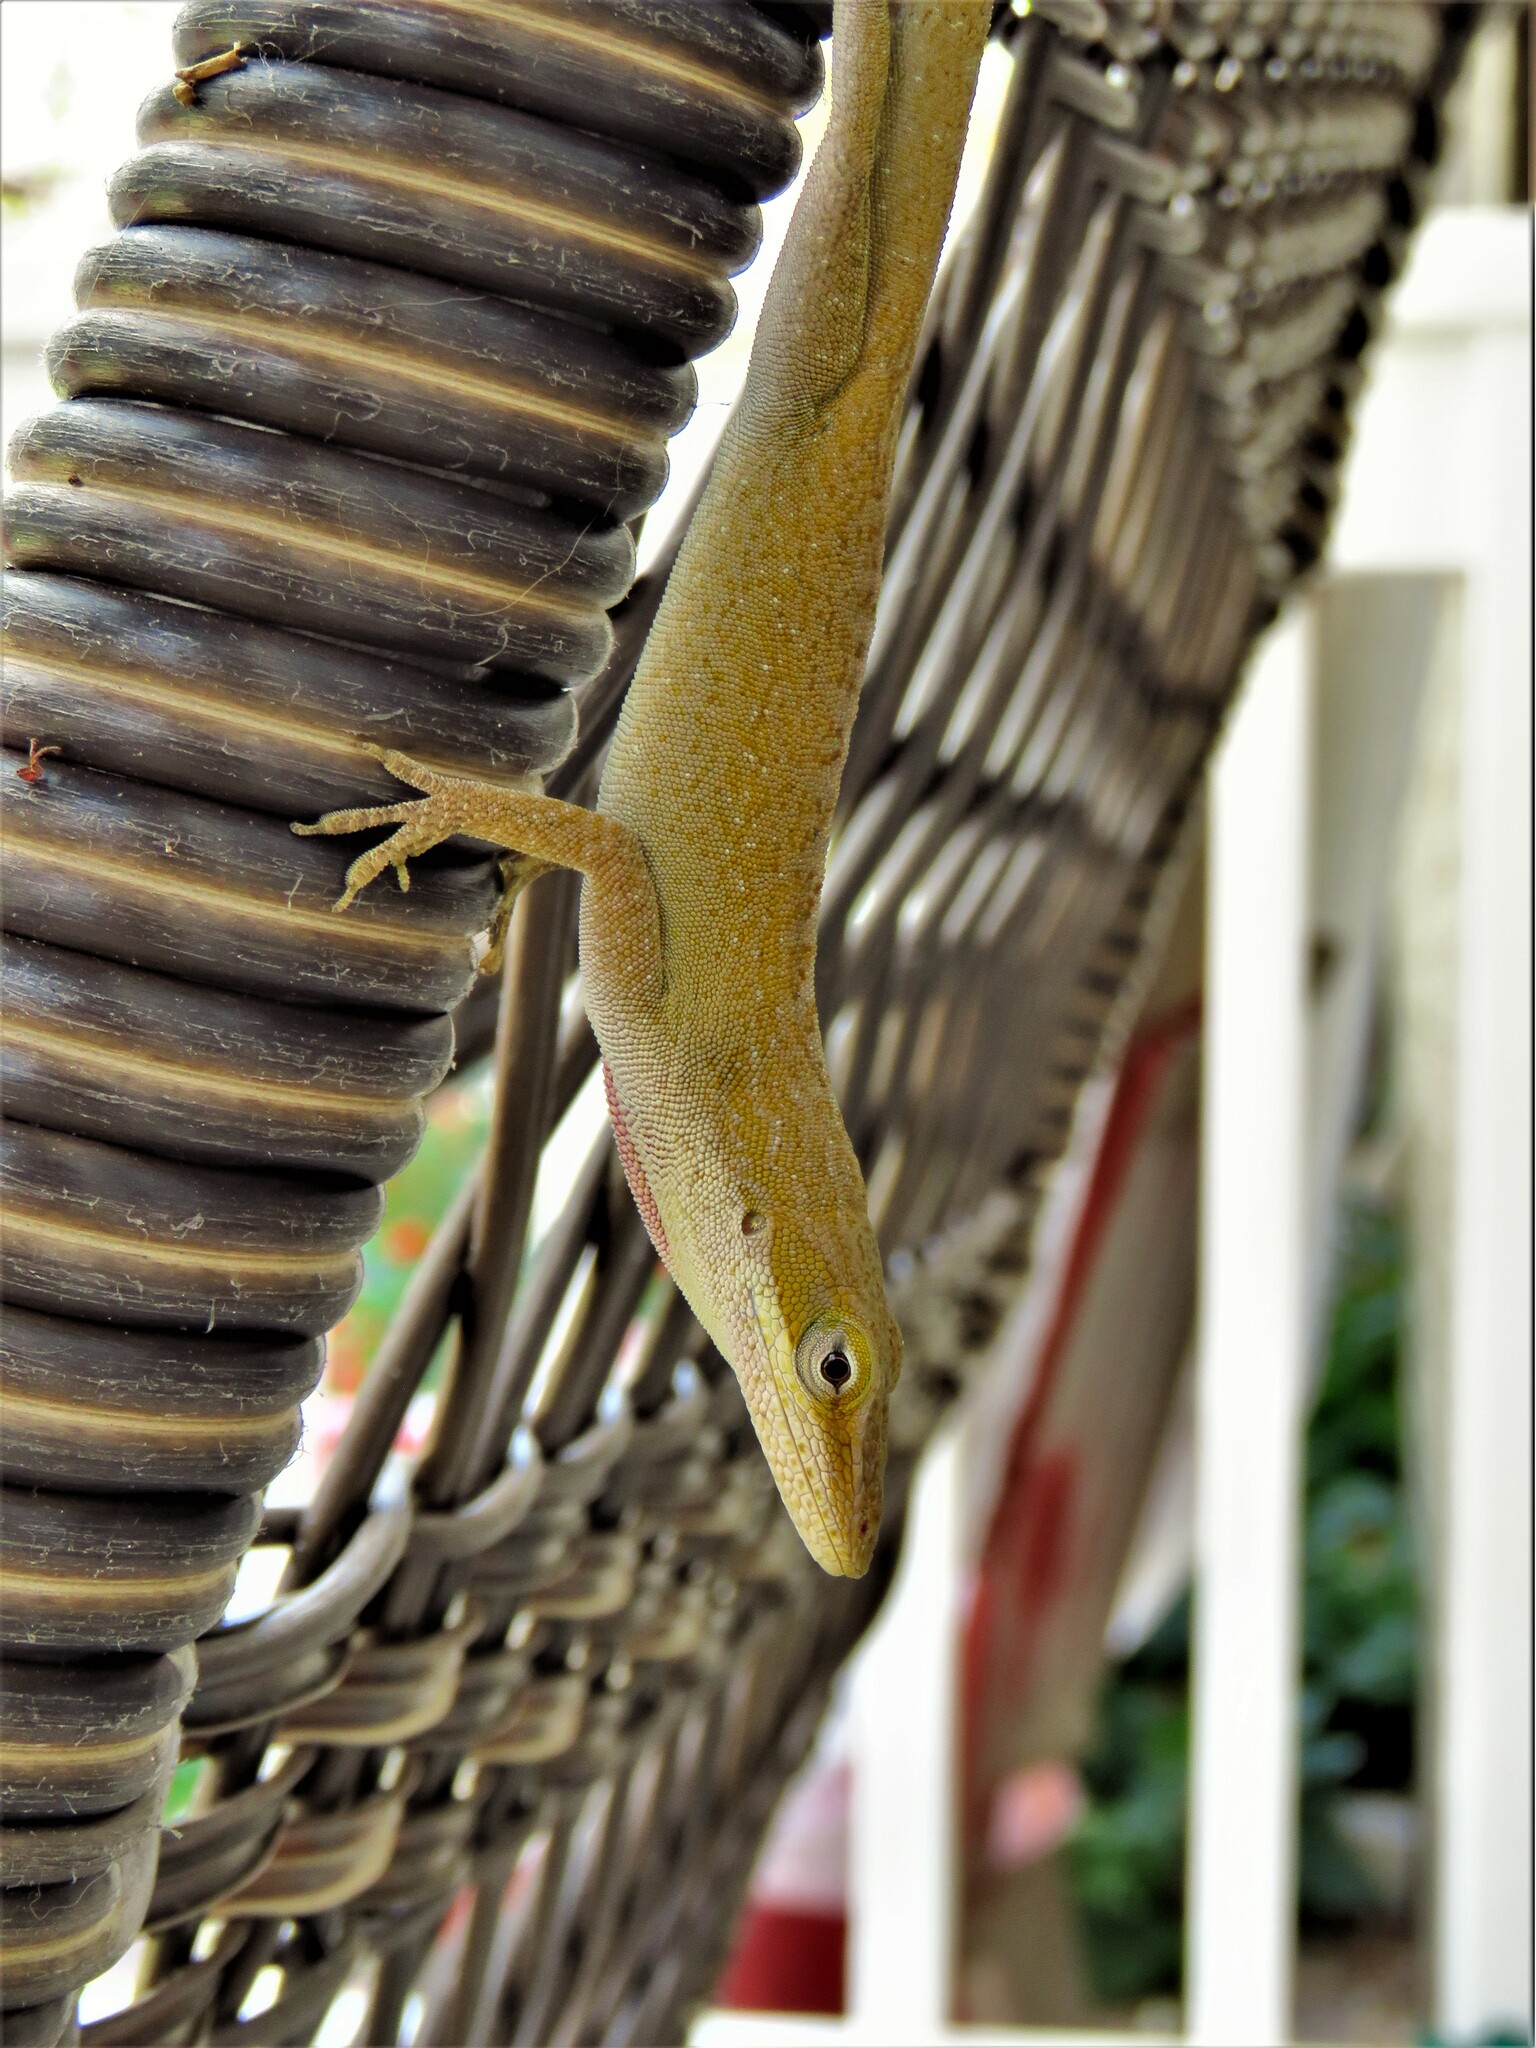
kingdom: Animalia
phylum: Chordata
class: Squamata
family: Dactyloidae
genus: Anolis
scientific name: Anolis carolinensis
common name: Green anole
